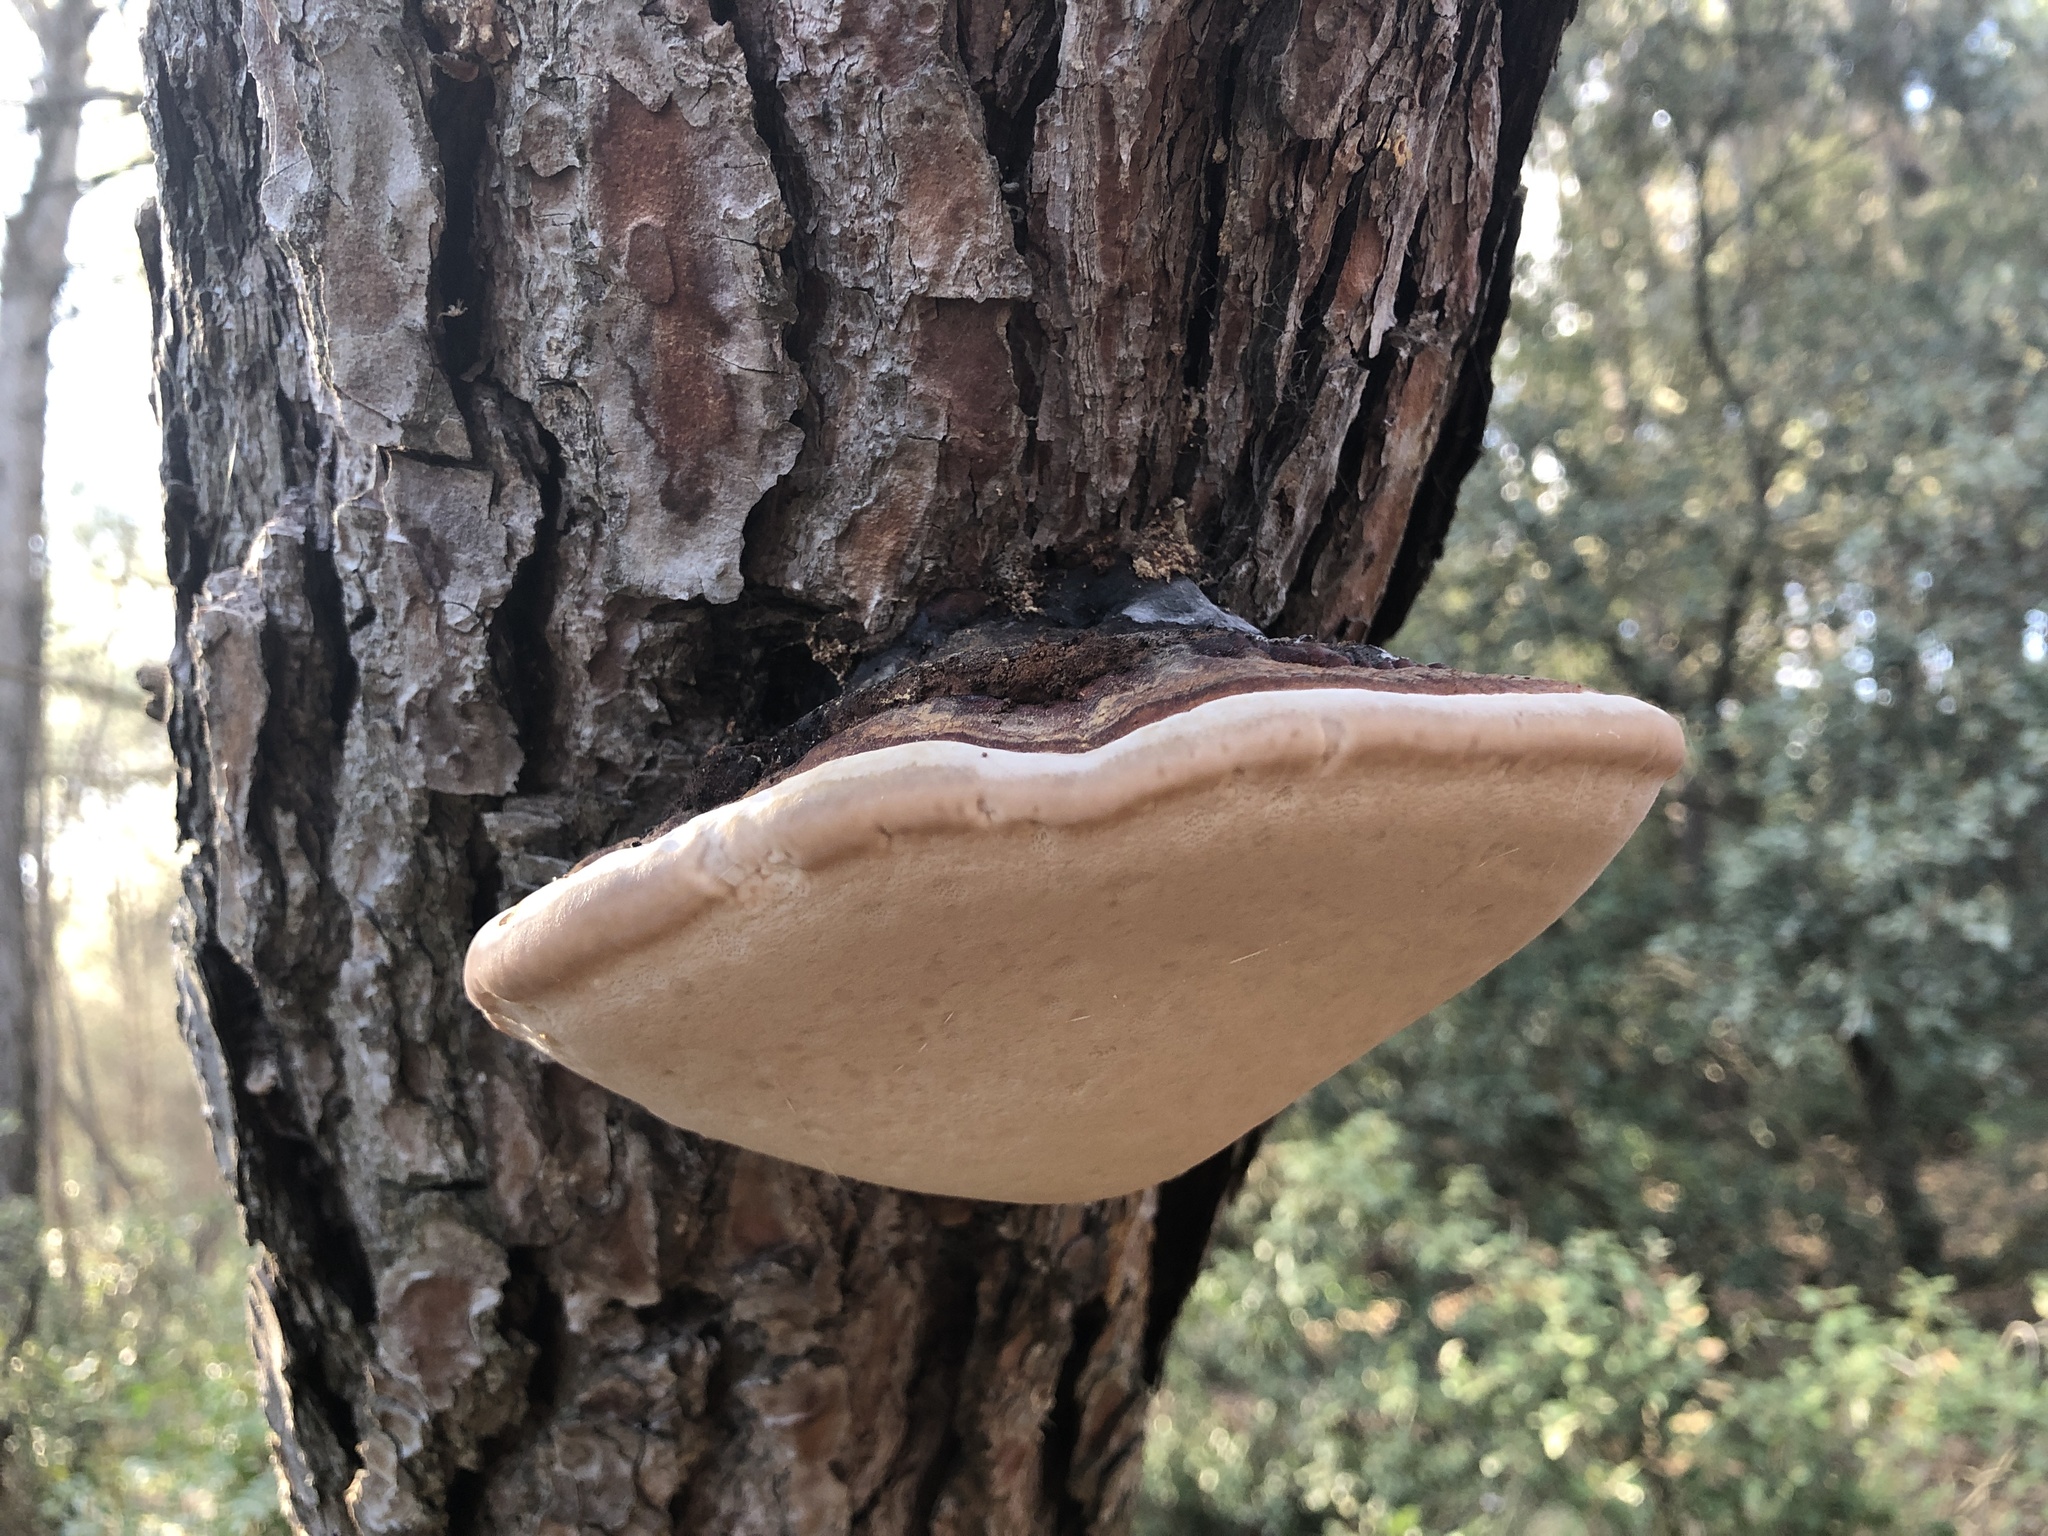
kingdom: Fungi
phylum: Basidiomycota
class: Agaricomycetes
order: Polyporales
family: Fomitopsidaceae
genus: Fomitopsis
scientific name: Fomitopsis pinicola
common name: Red-belted bracket
